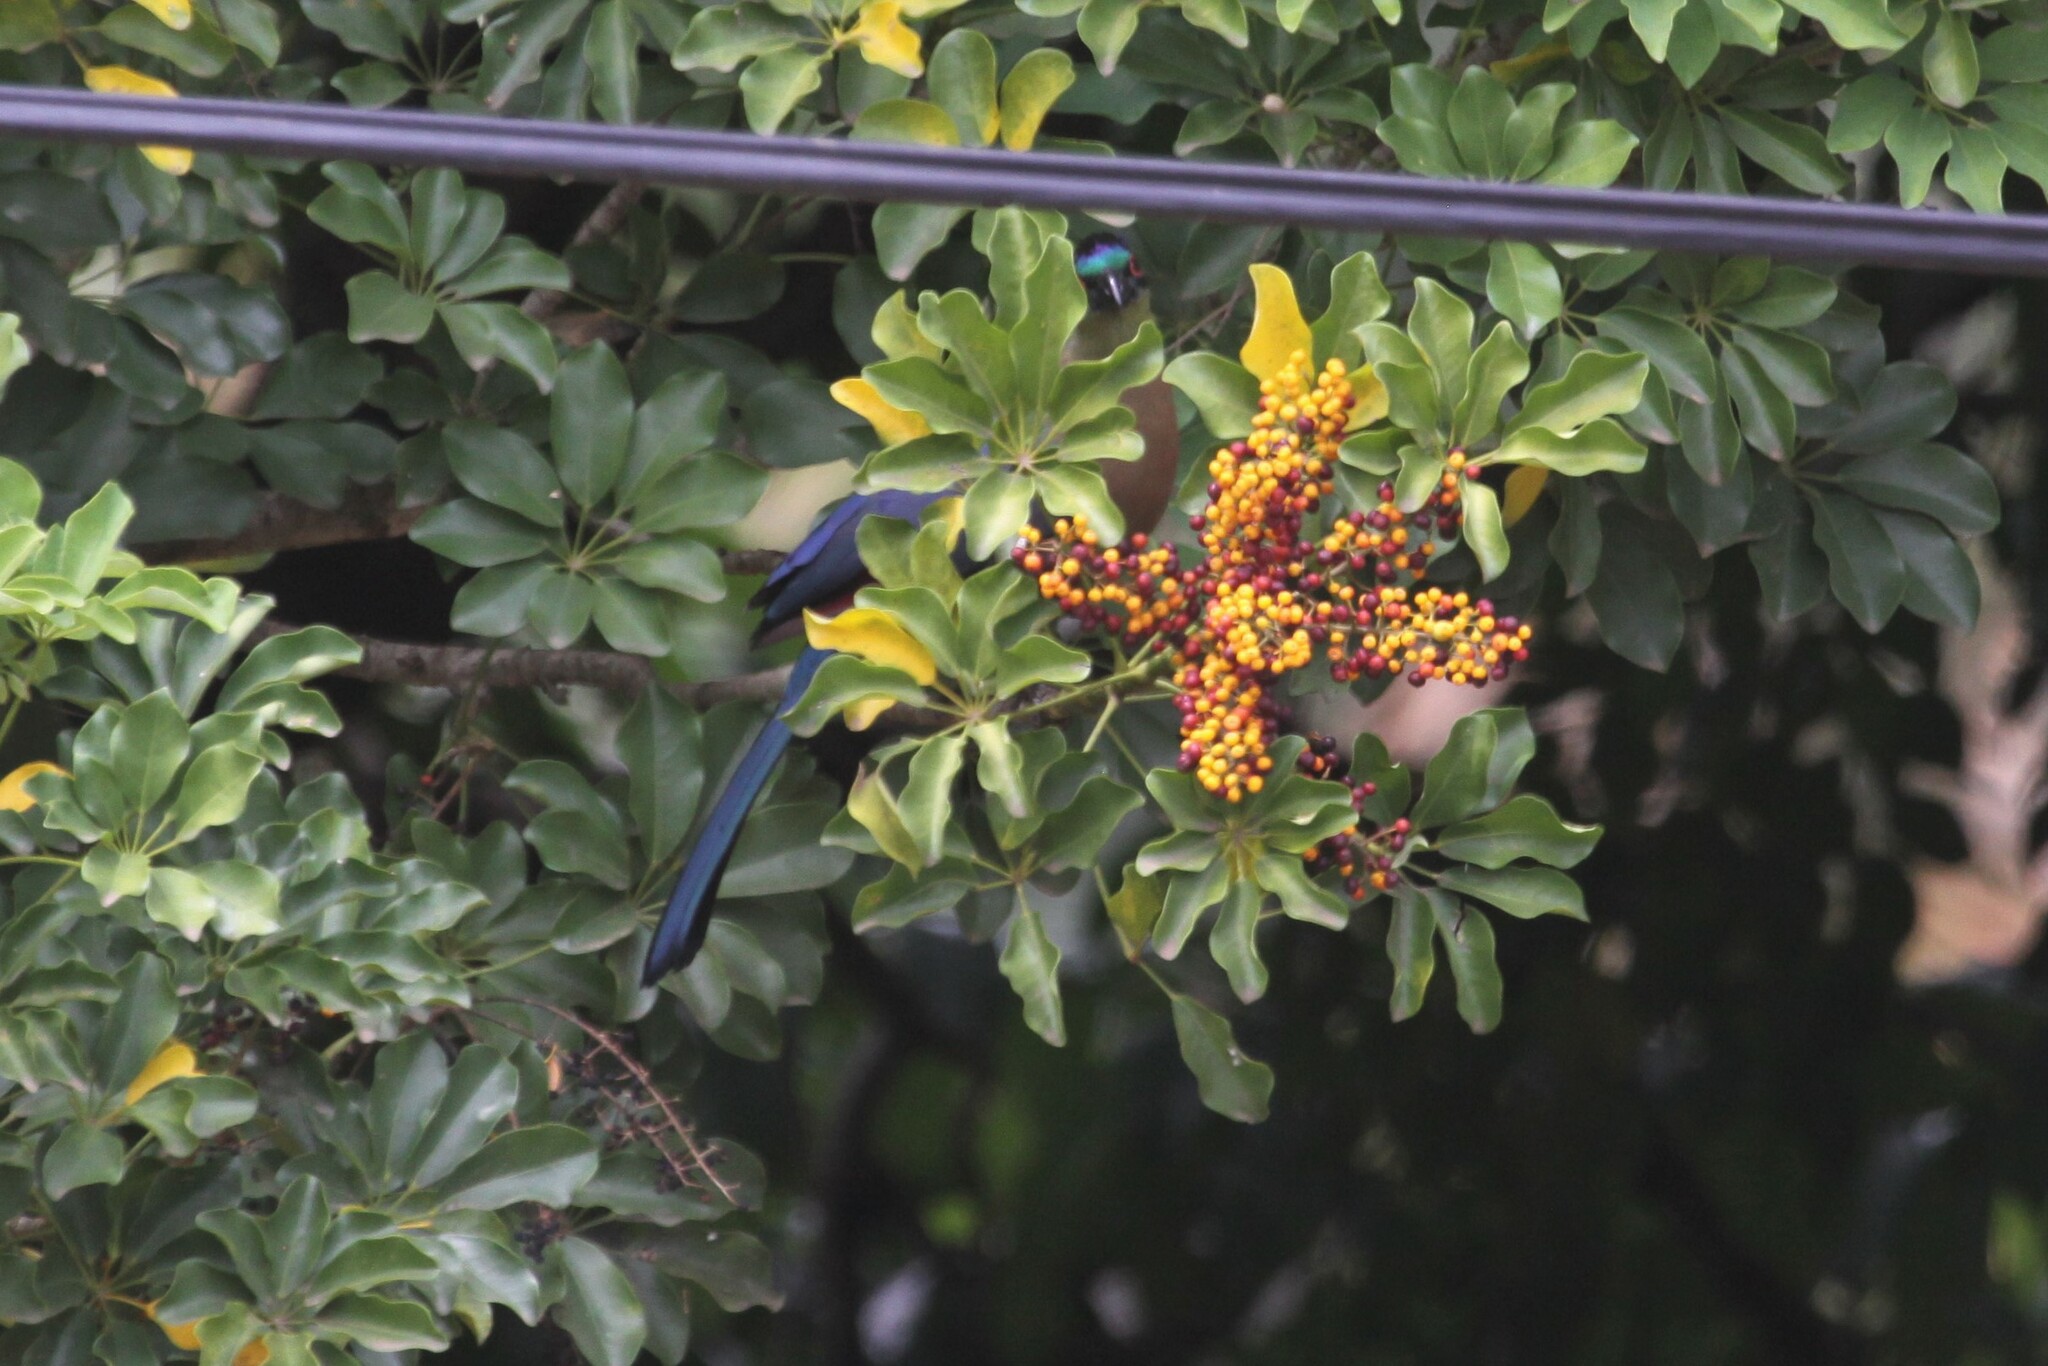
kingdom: Animalia
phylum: Chordata
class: Aves
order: Musophagiformes
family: Musophagidae
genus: Tauraco
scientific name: Tauraco porphyreolophus
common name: Purple-crested turaco
